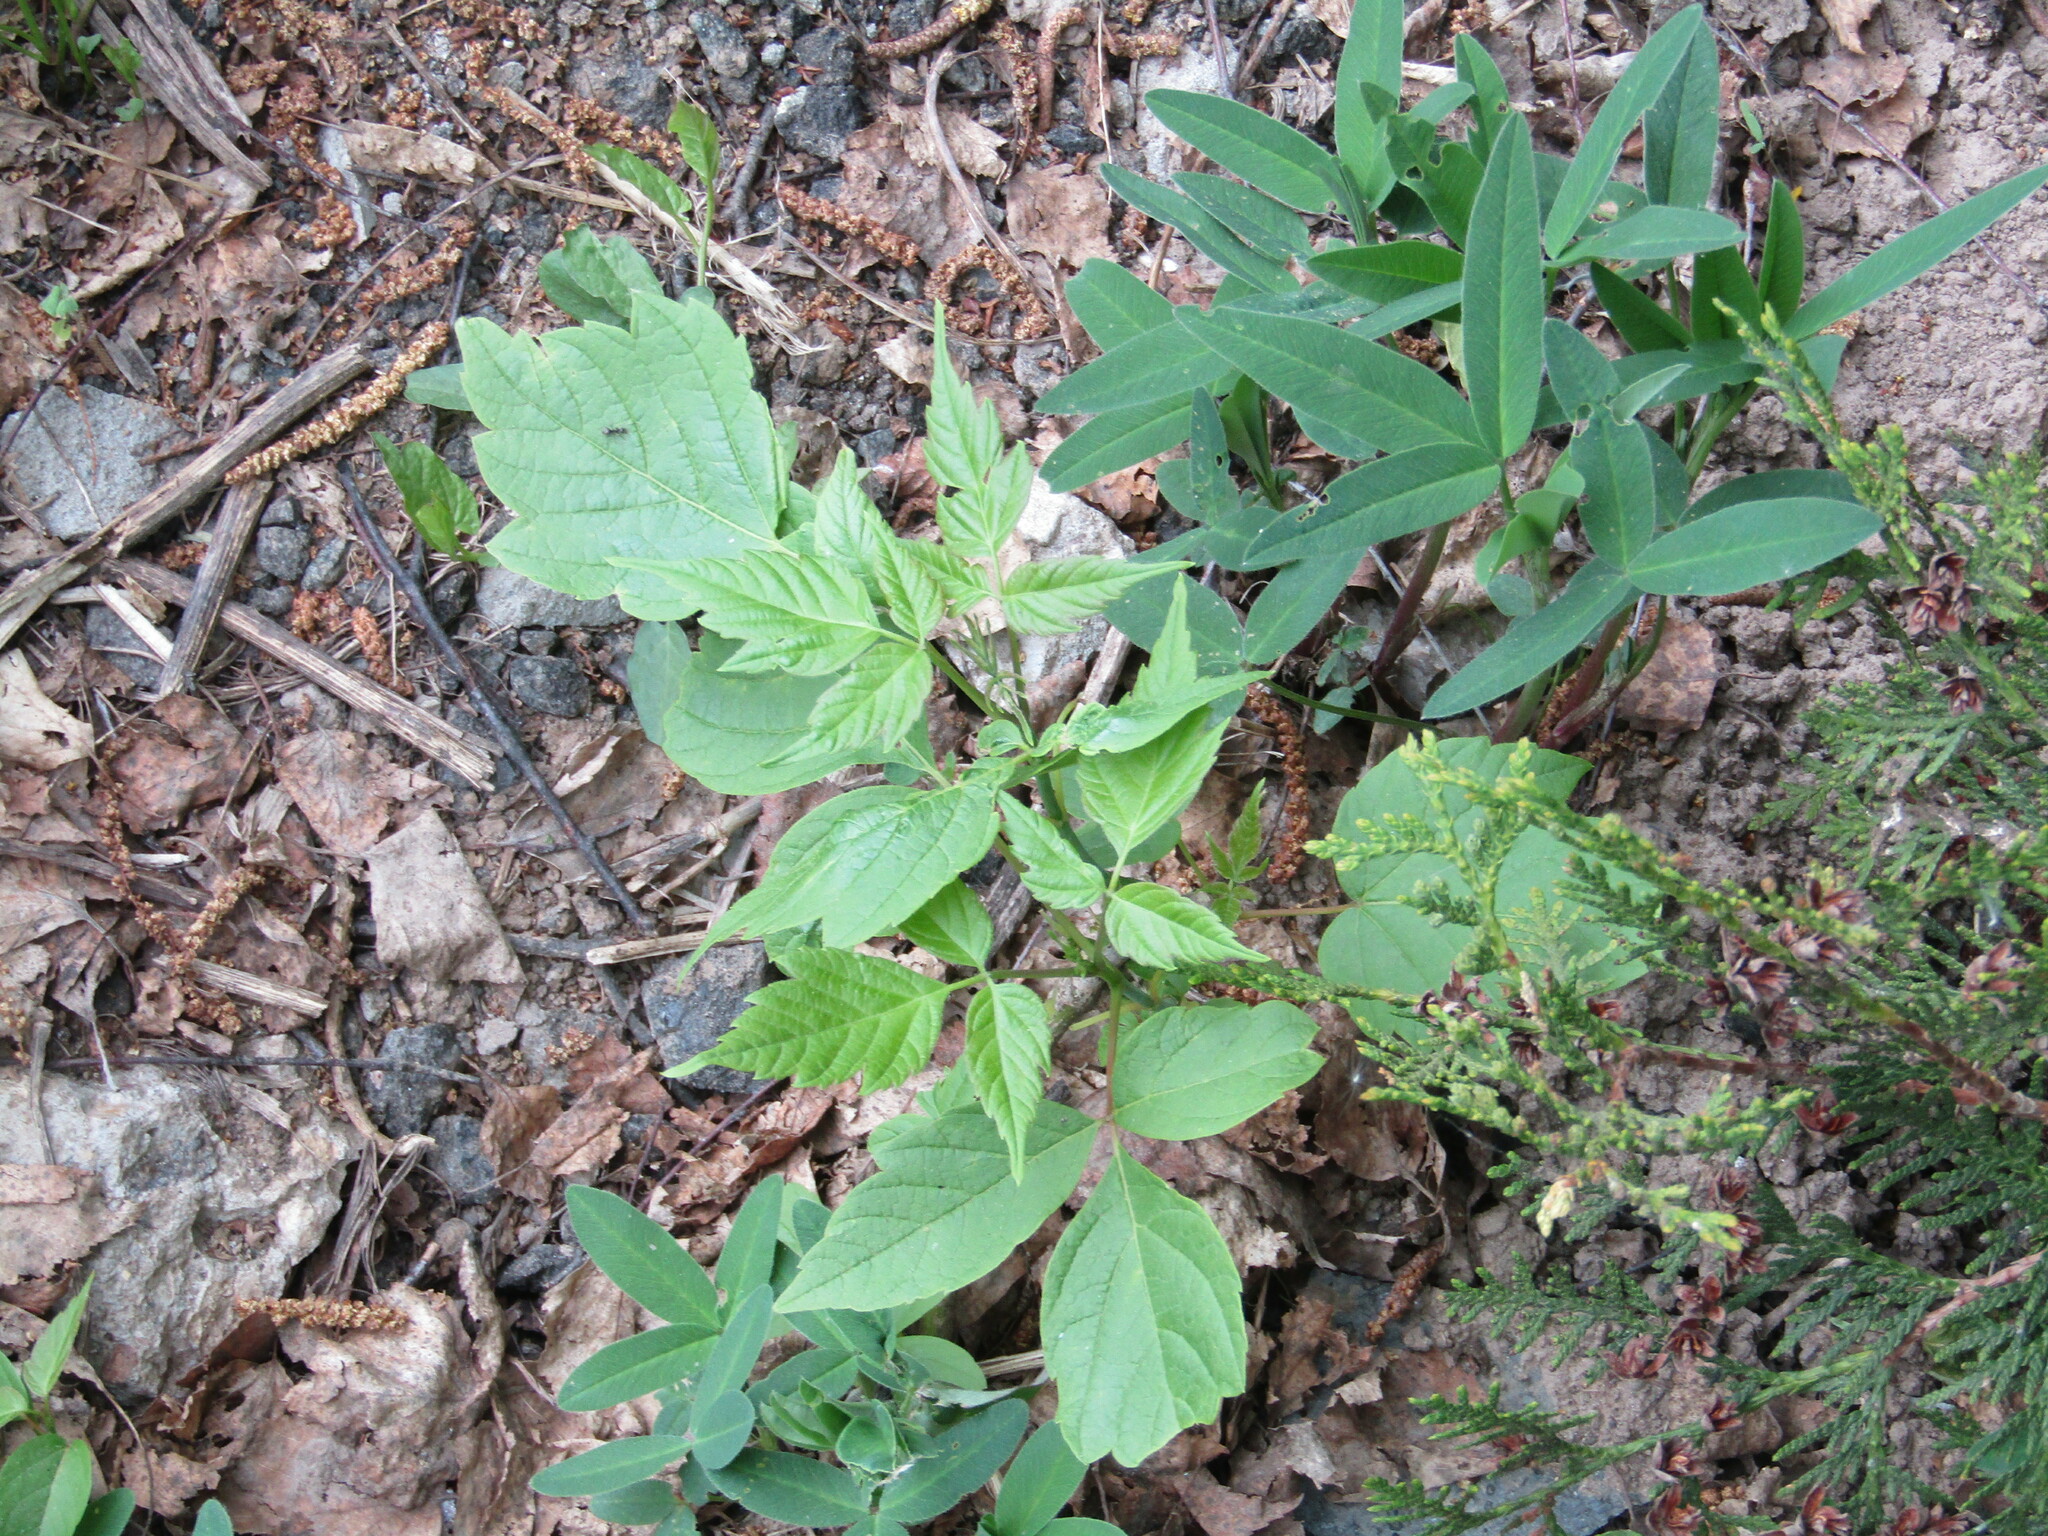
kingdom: Plantae
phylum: Tracheophyta
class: Magnoliopsida
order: Sapindales
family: Sapindaceae
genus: Acer
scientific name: Acer negundo
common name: Ashleaf maple
